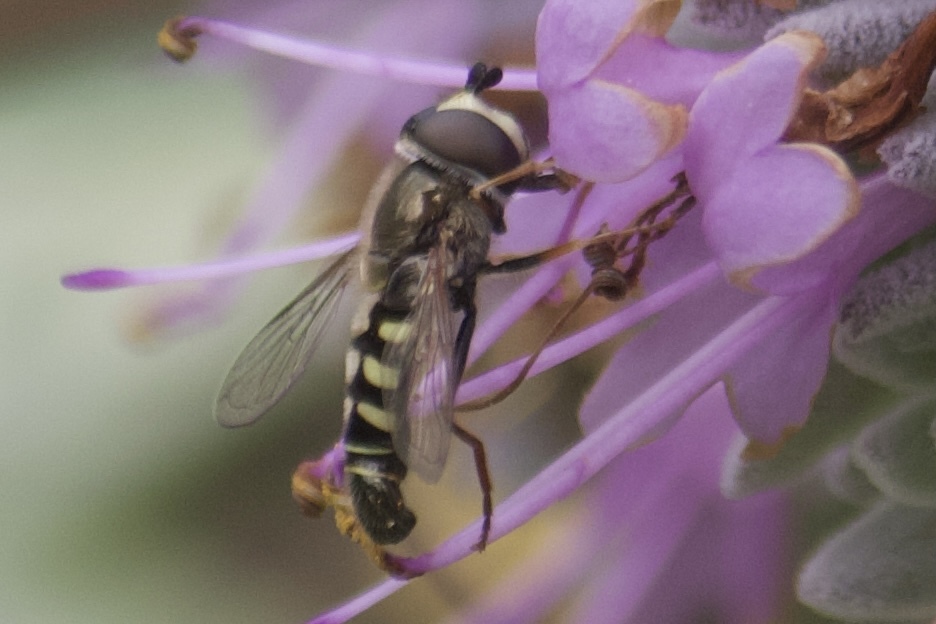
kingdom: Animalia
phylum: Arthropoda
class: Insecta
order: Diptera
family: Syrphidae
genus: Eupeodes
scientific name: Eupeodes volucris
